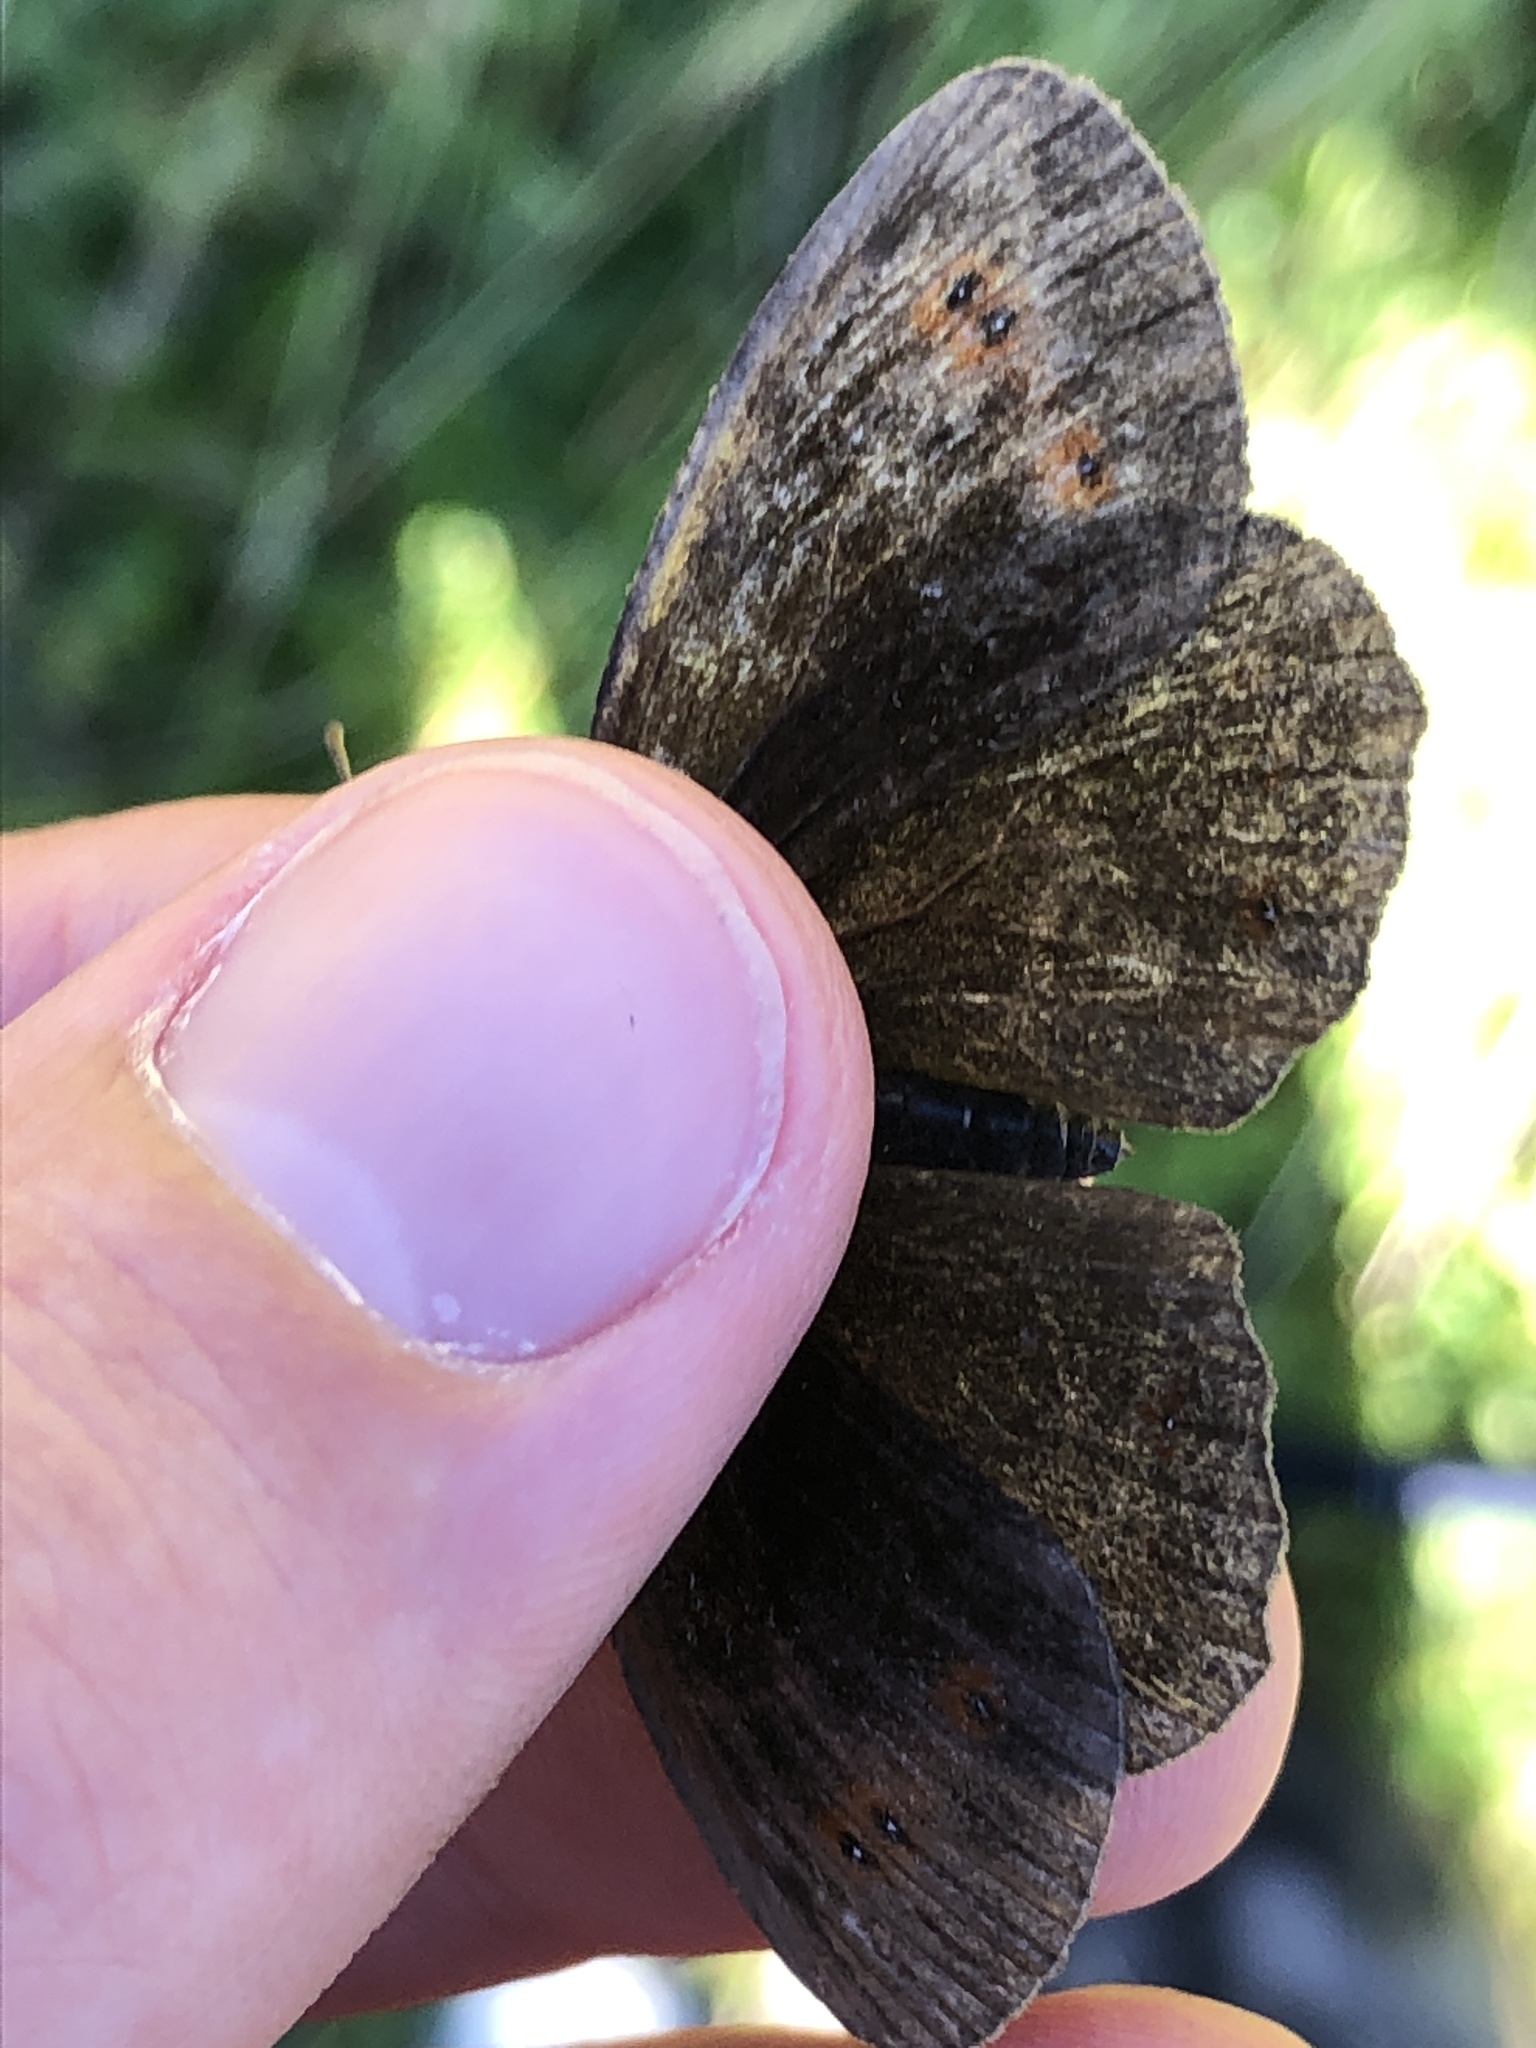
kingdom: Animalia
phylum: Arthropoda
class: Insecta
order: Lepidoptera
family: Nymphalidae
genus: Erebia
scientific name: Erebia aethiops
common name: Scotch argus
